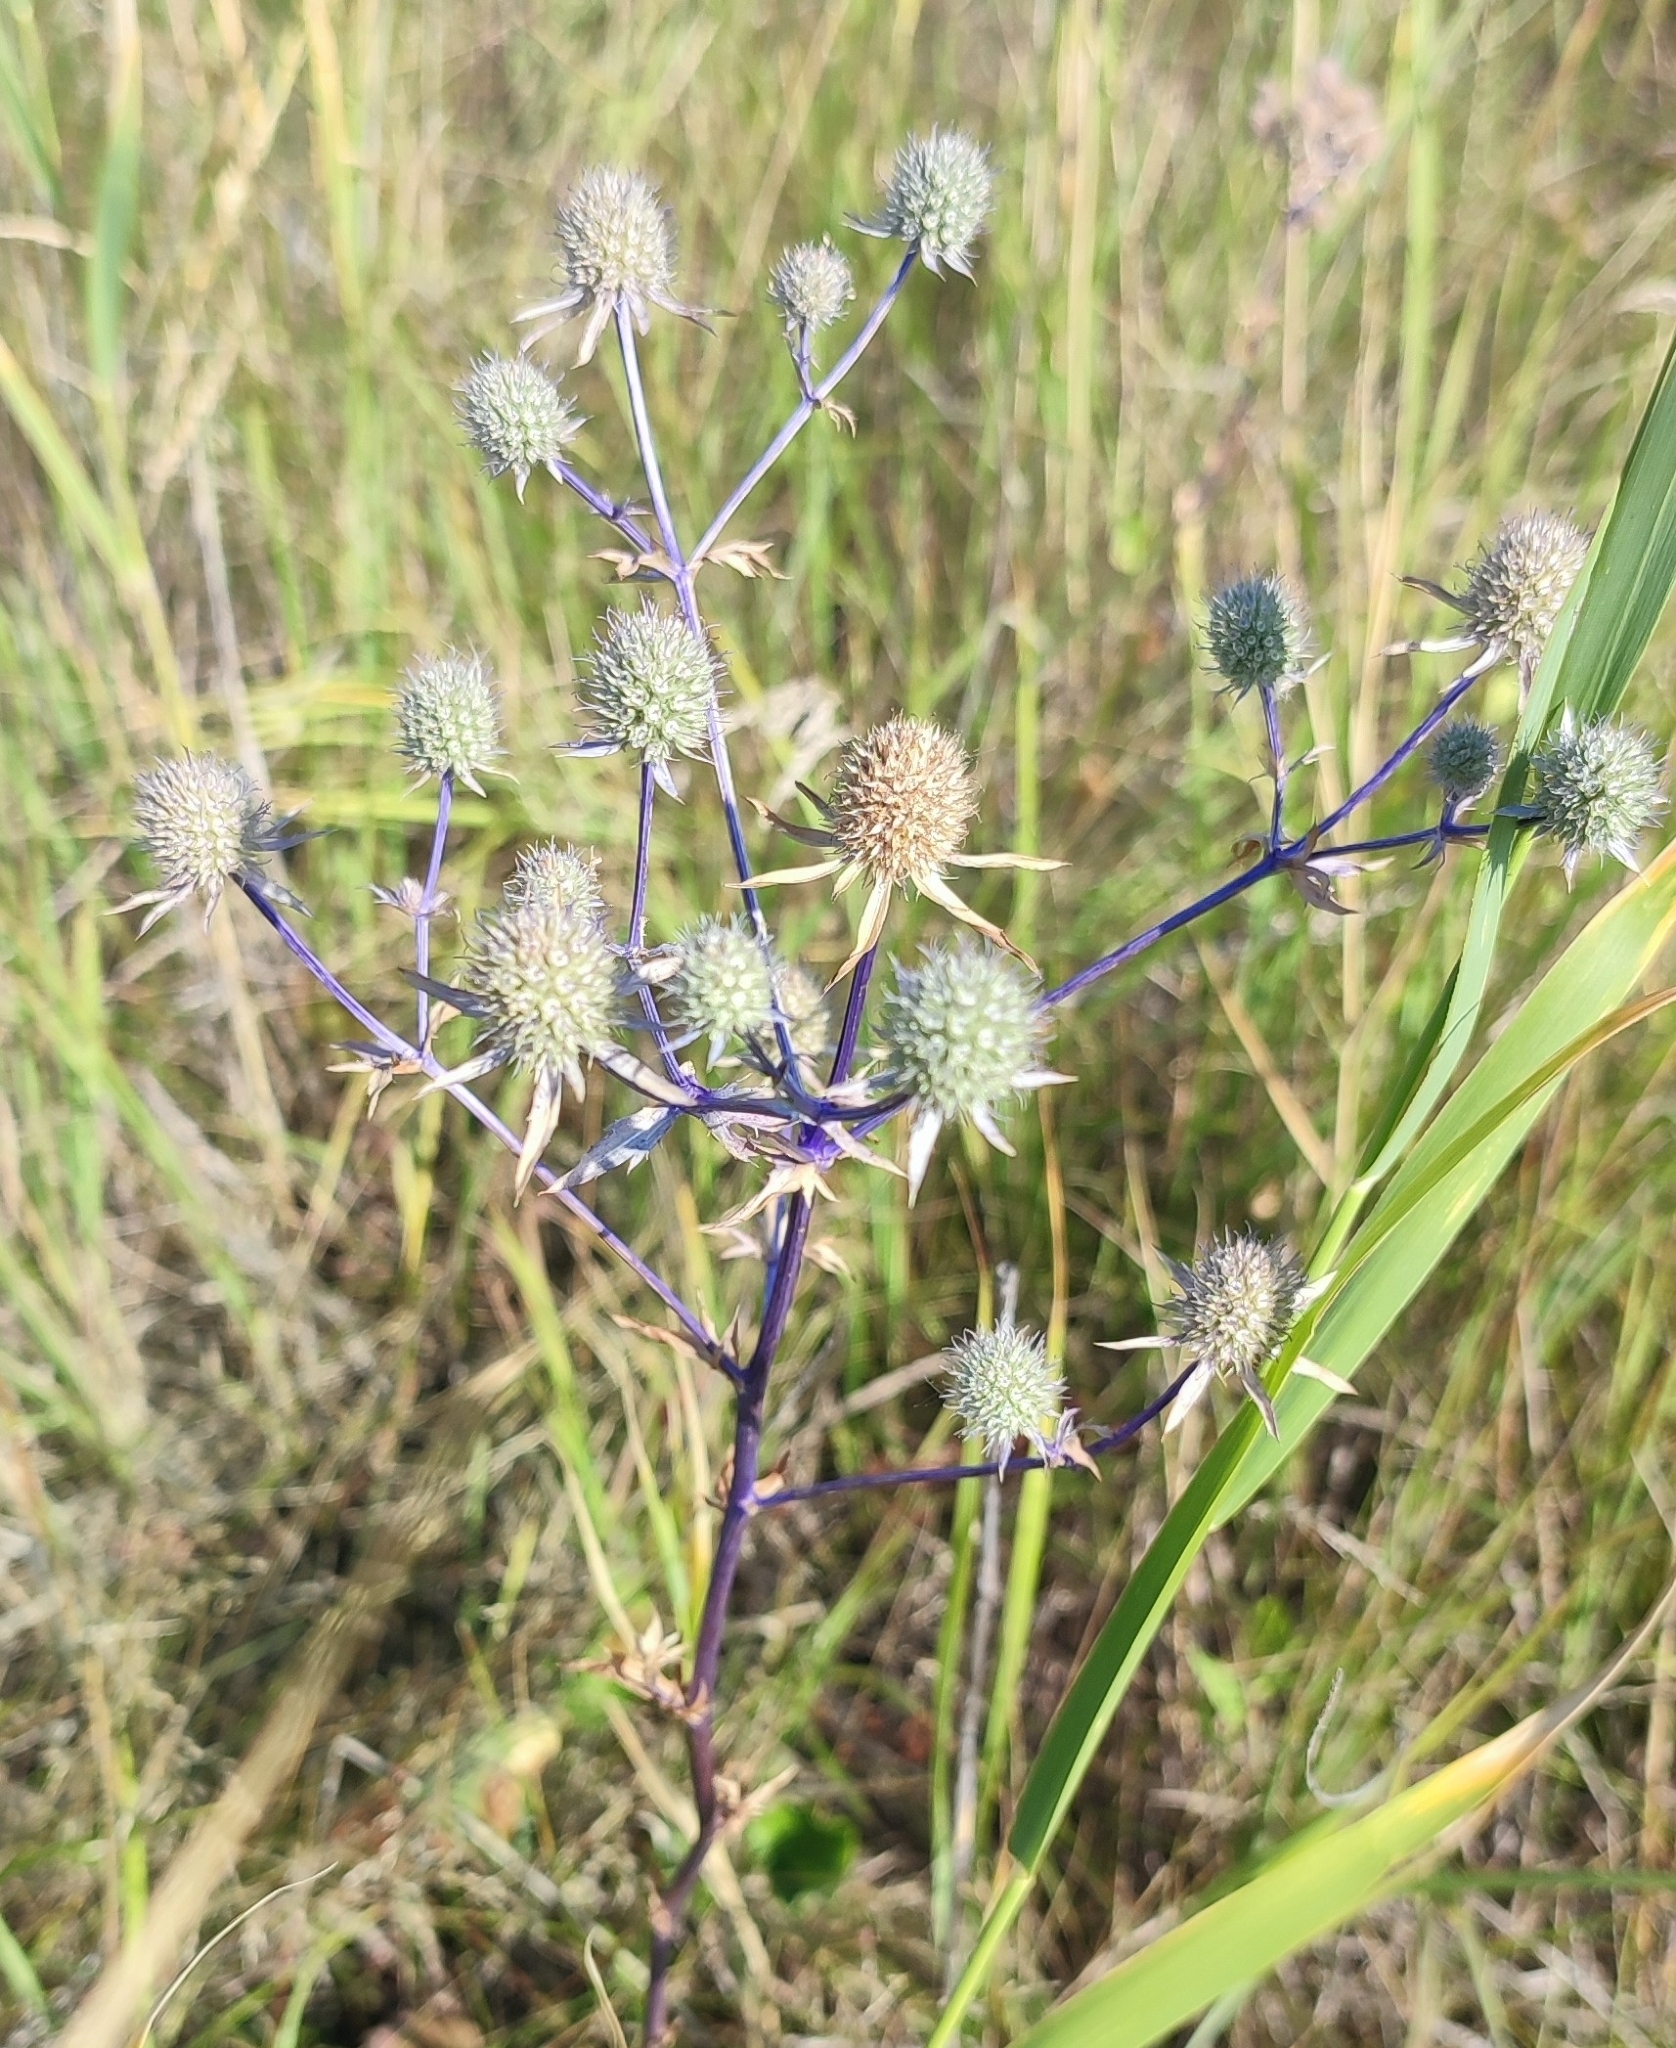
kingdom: Plantae
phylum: Tracheophyta
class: Magnoliopsida
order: Apiales
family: Apiaceae
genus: Eryngium
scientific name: Eryngium planum
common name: Blue eryngo
